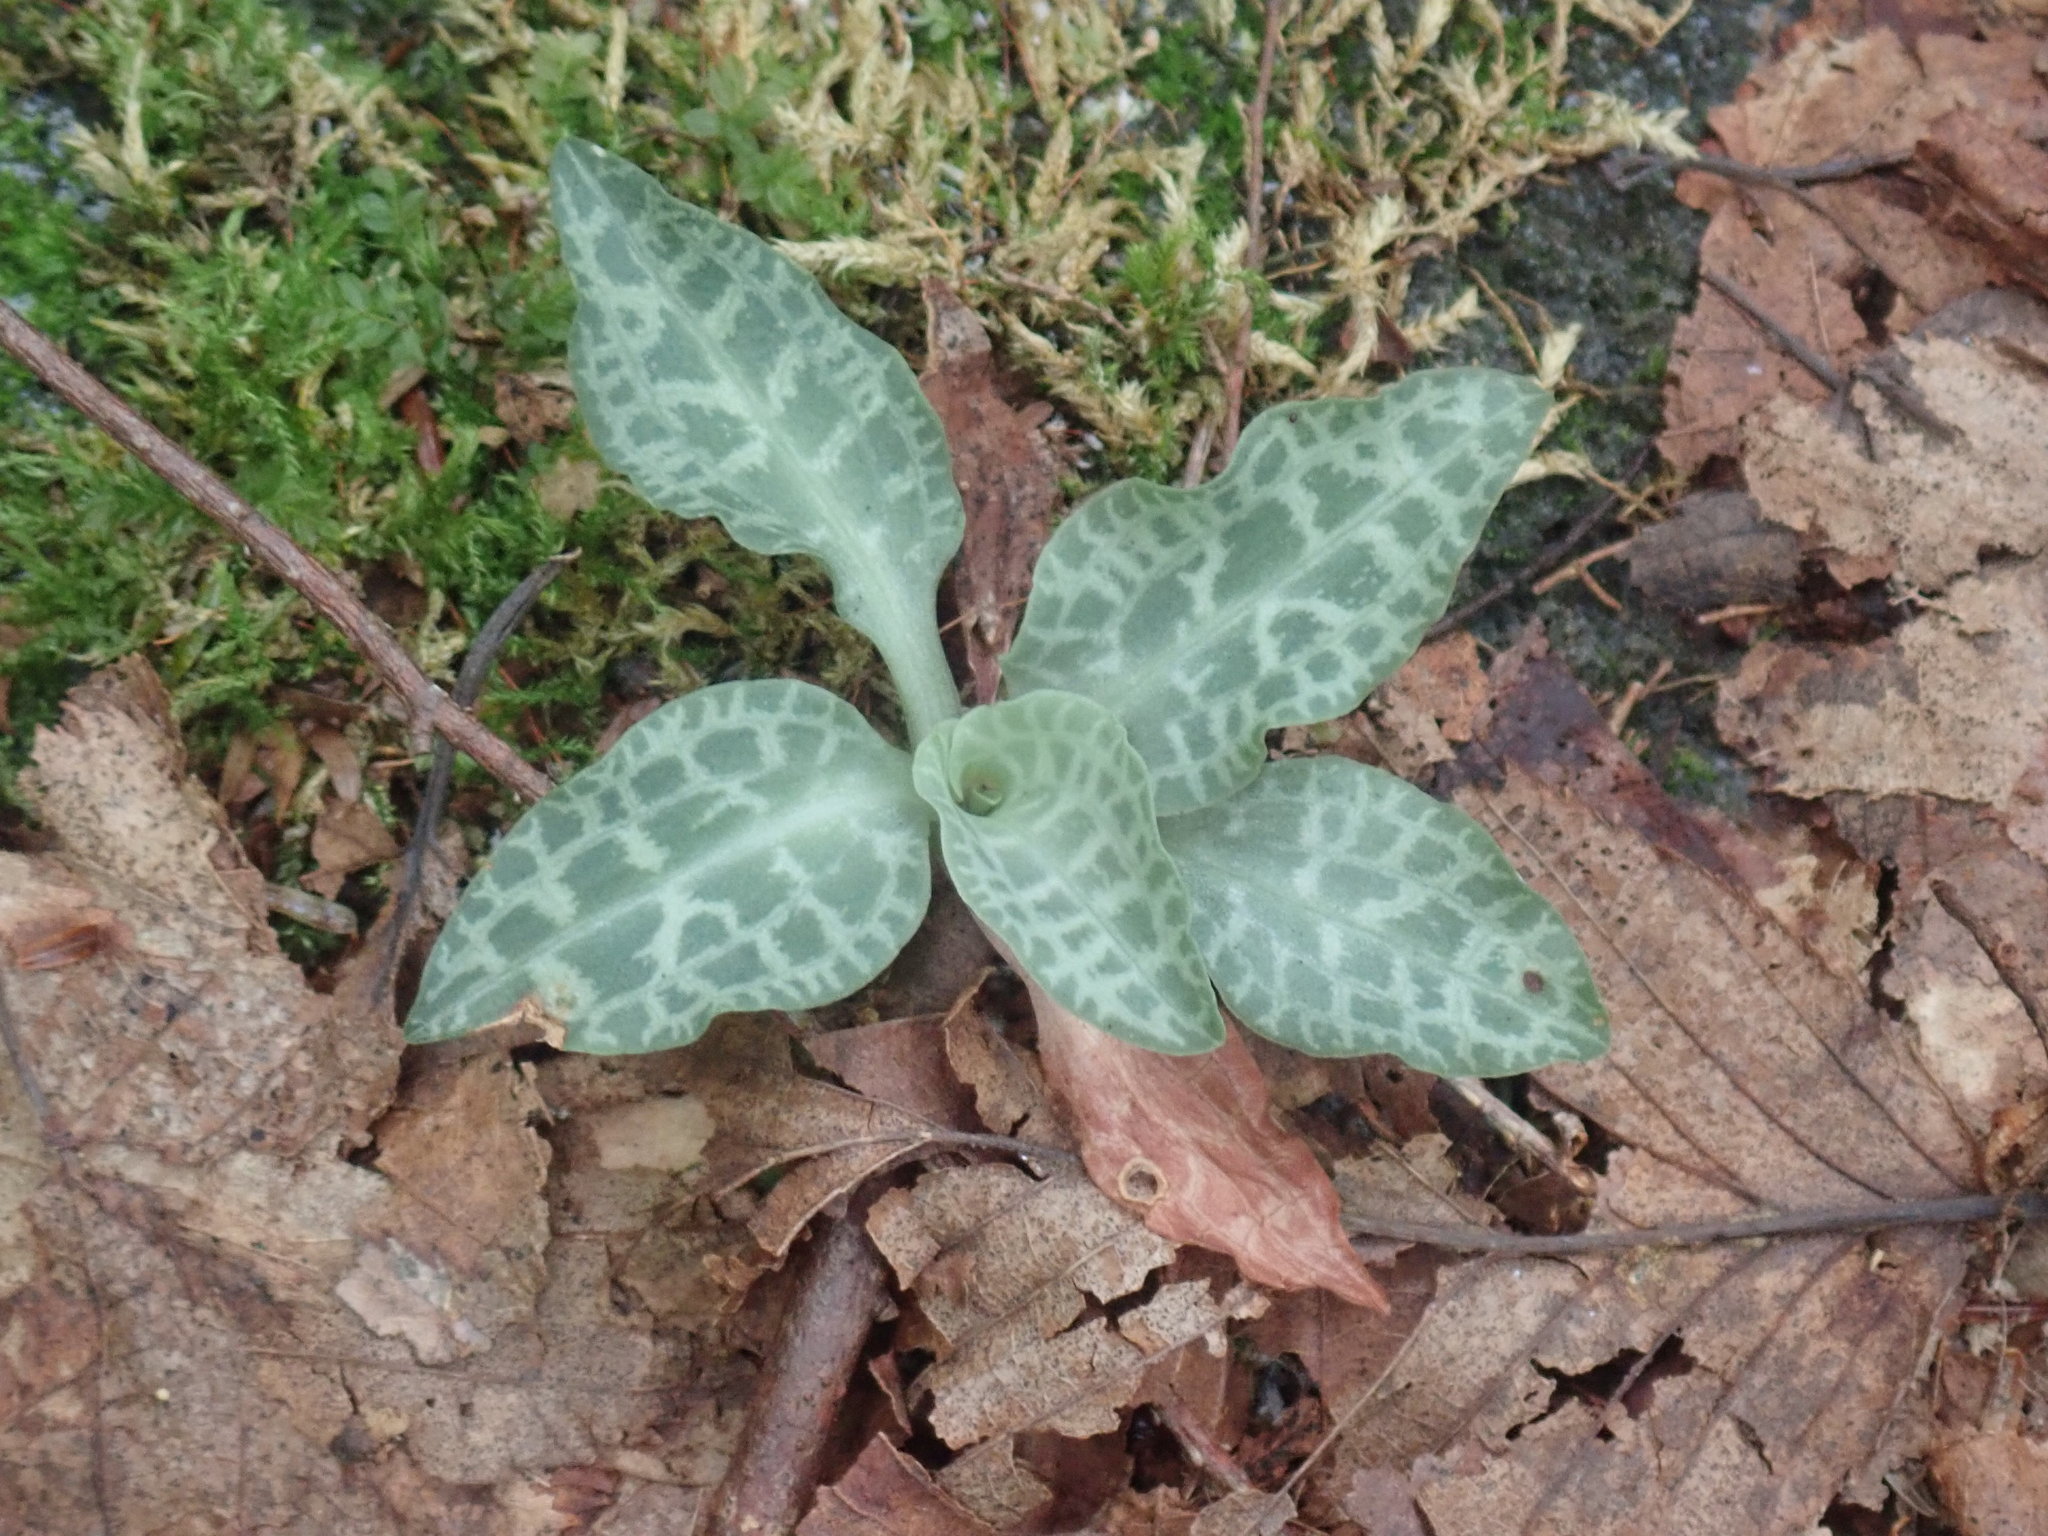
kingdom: Plantae
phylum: Tracheophyta
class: Liliopsida
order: Asparagales
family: Orchidaceae
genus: Goodyera
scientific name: Goodyera tesselata
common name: Checkered rattlesnake-plantain
